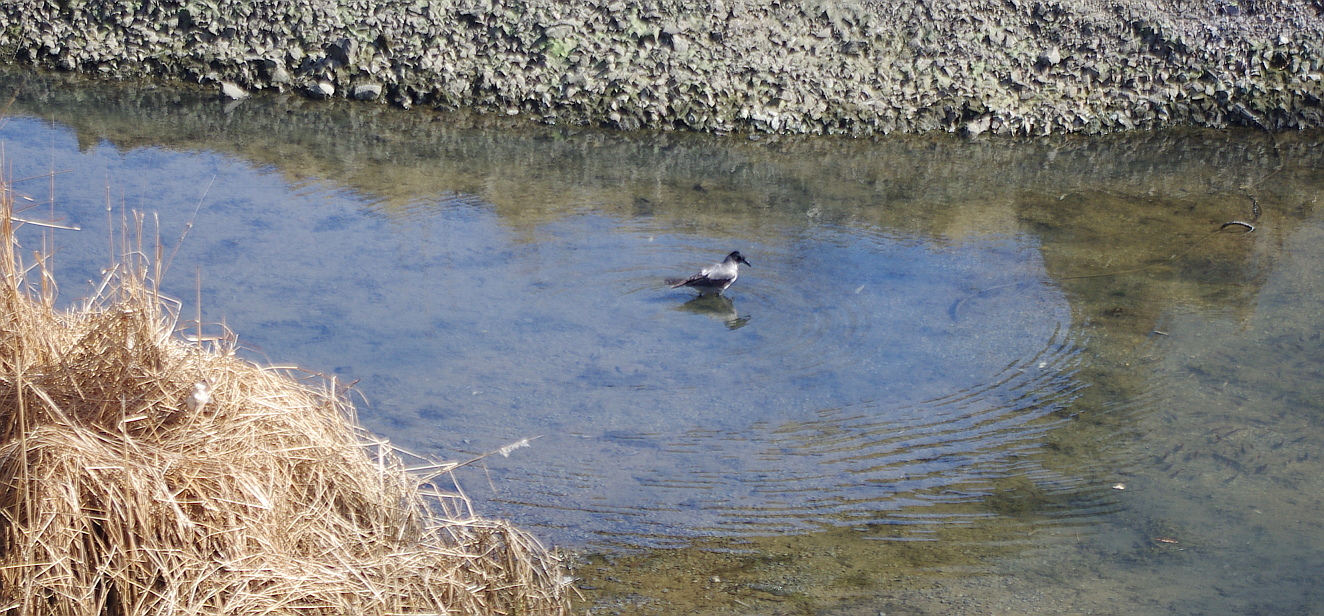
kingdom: Animalia
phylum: Chordata
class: Aves
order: Passeriformes
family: Corvidae
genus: Corvus
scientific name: Corvus cornix
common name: Hooded crow
